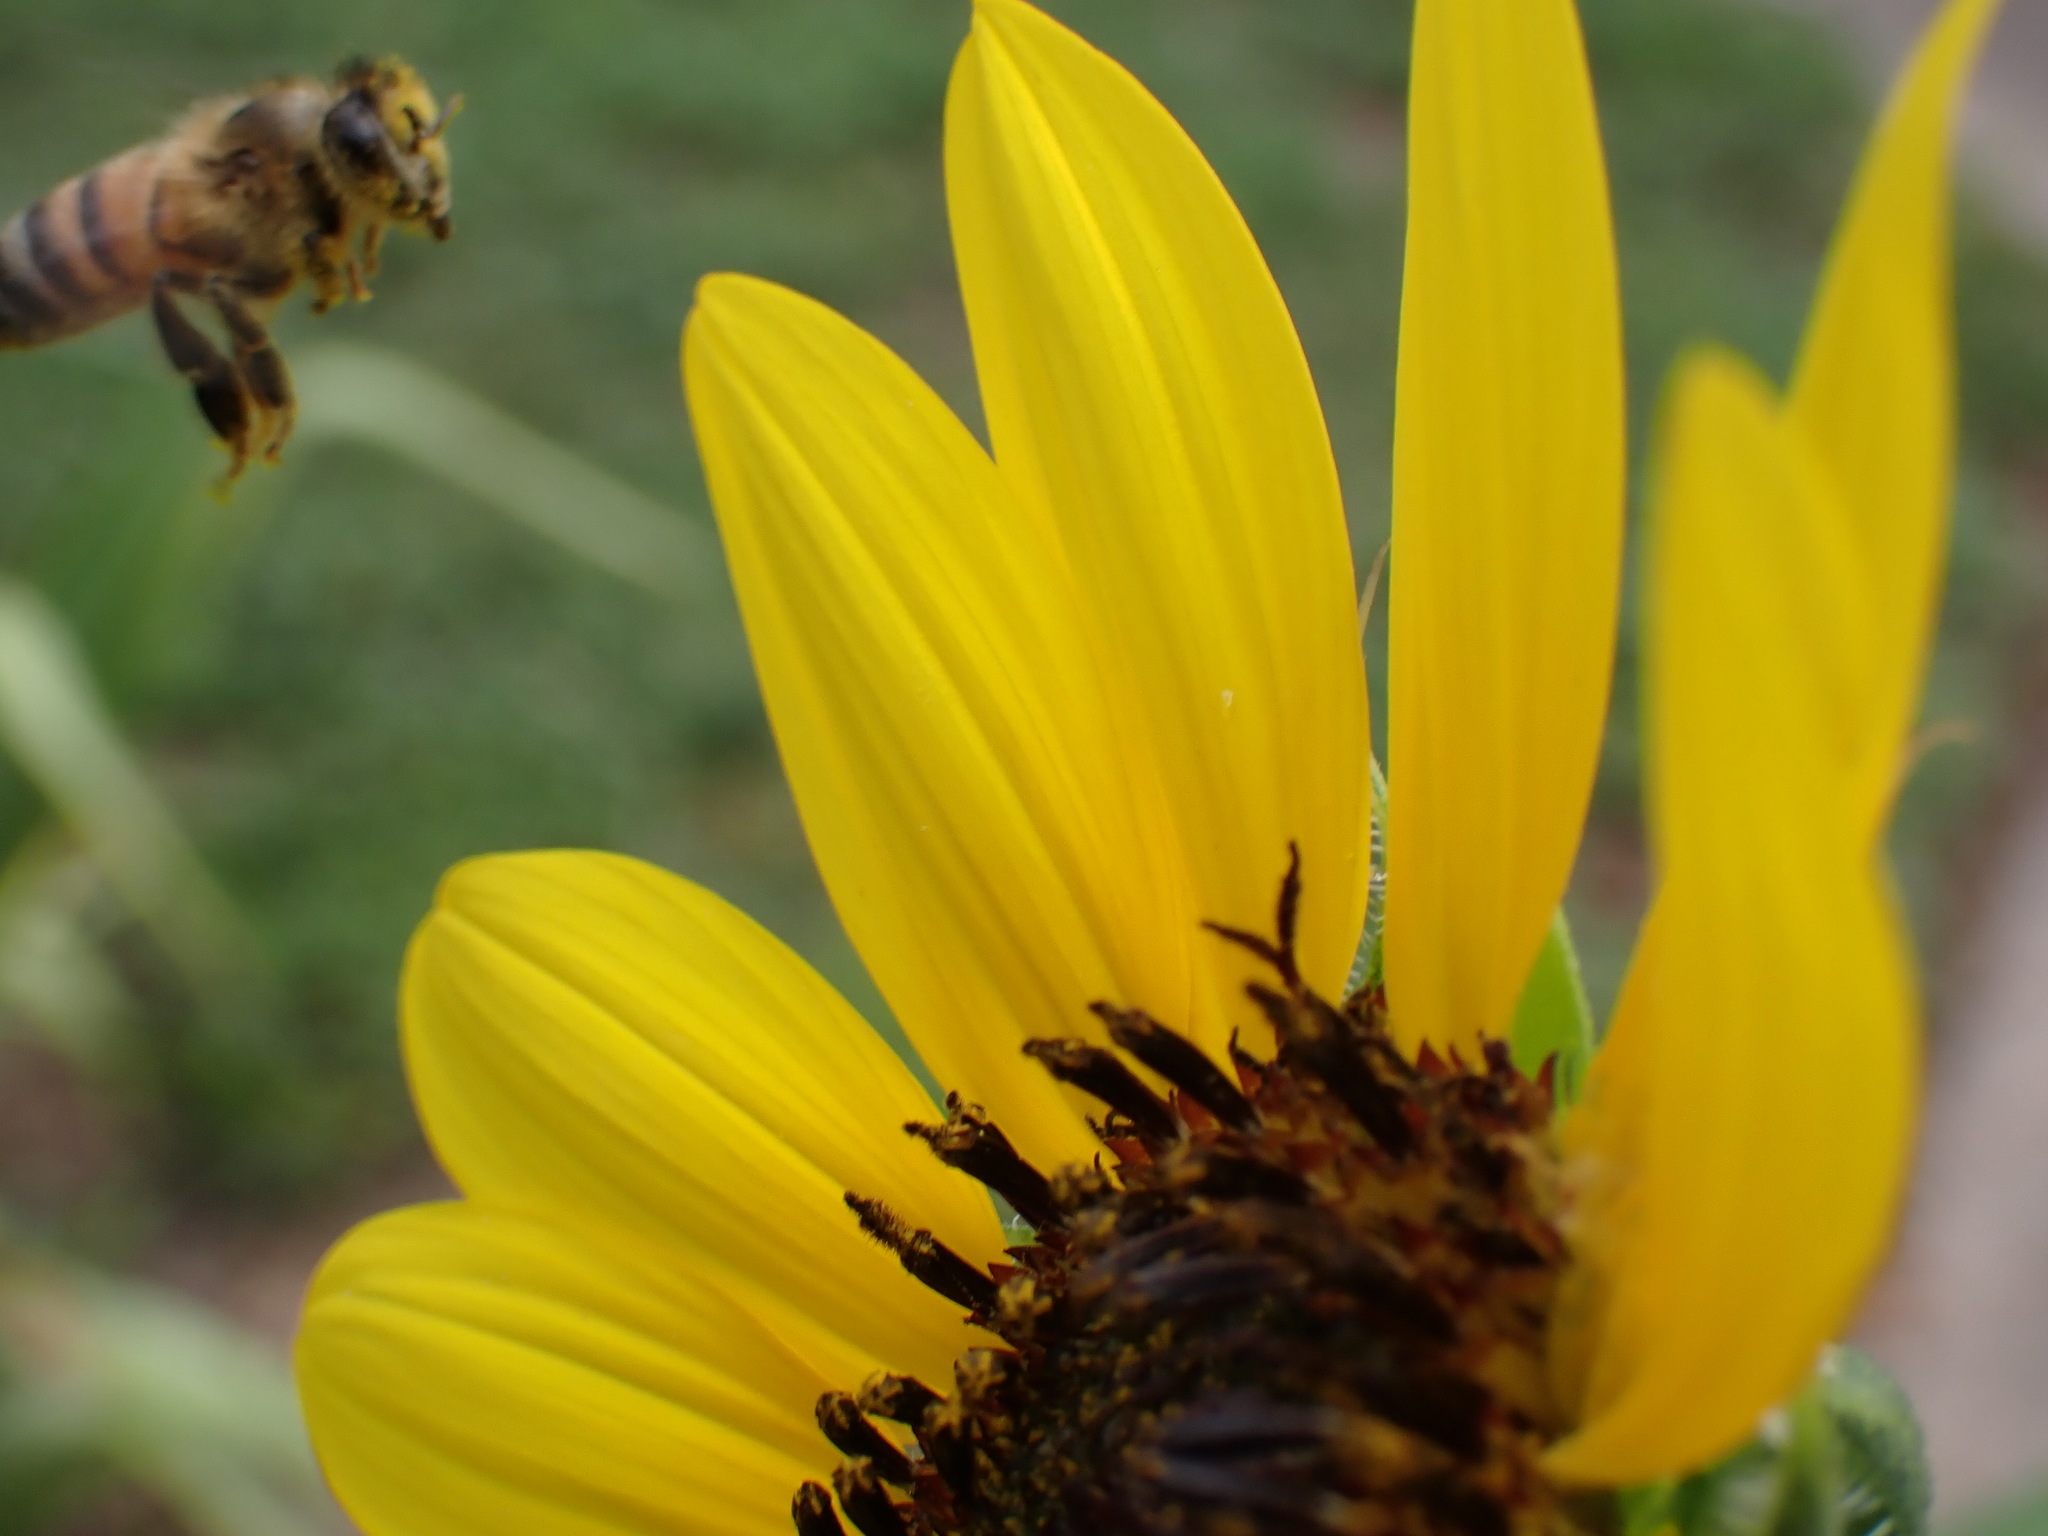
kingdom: Animalia
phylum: Arthropoda
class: Insecta
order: Hymenoptera
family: Apidae
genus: Apis
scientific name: Apis mellifera
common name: Honey bee
